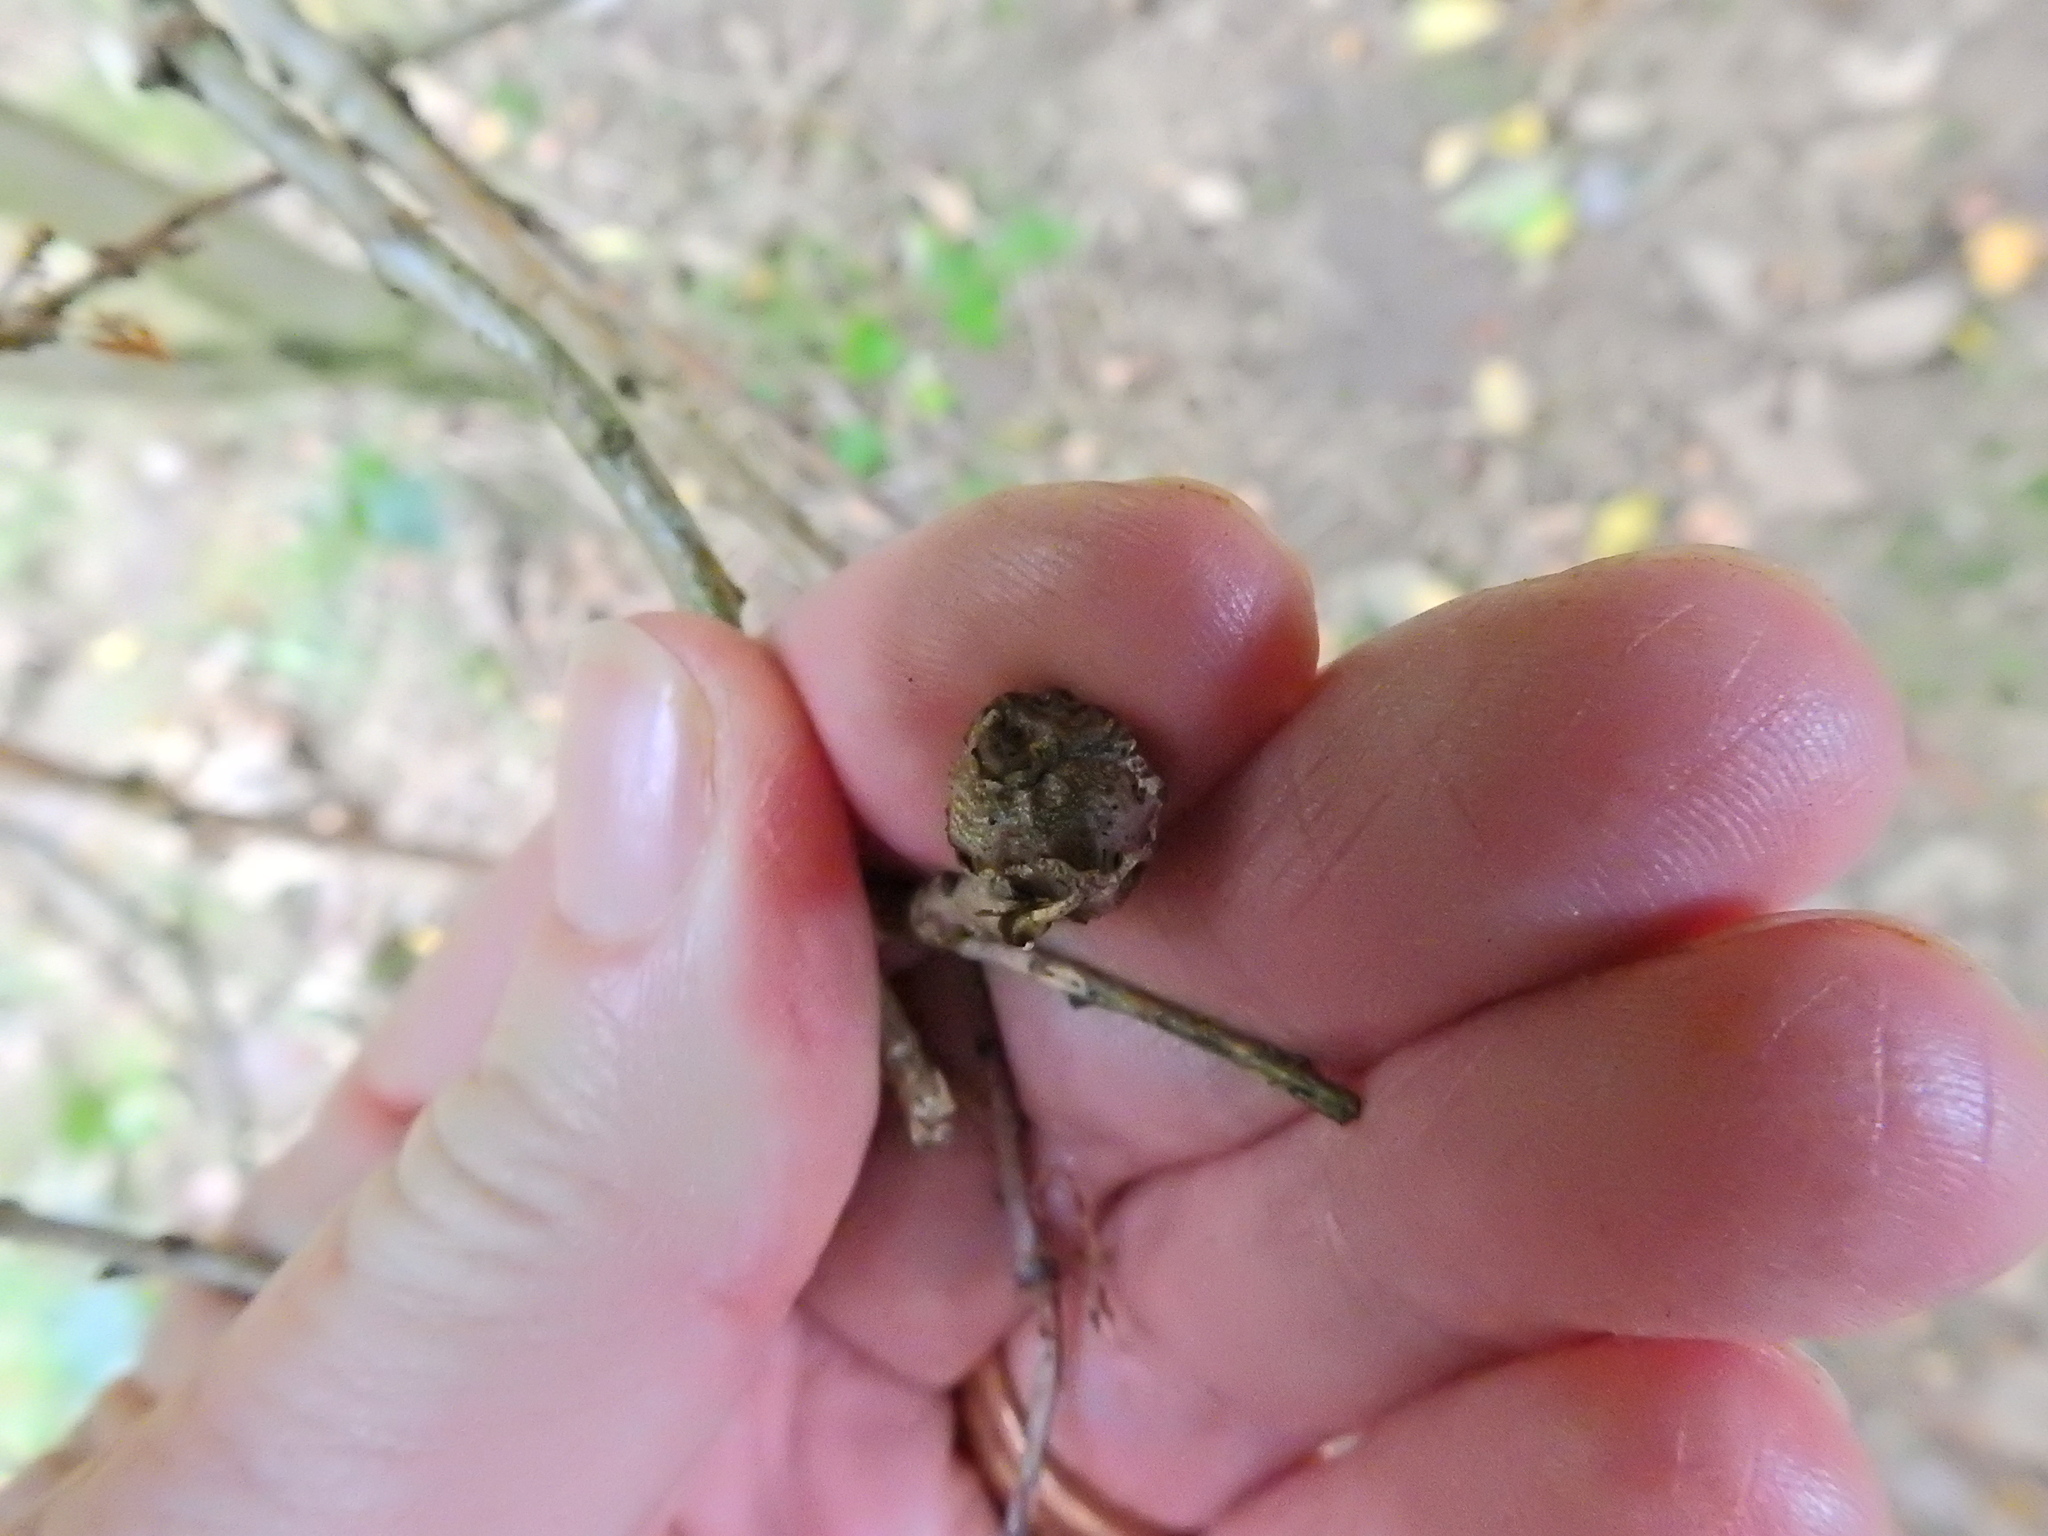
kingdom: Animalia
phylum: Arthropoda
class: Insecta
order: Hymenoptera
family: Cynipidae
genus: Andricus
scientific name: Andricus lignicolus
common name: Cola-nut gall
